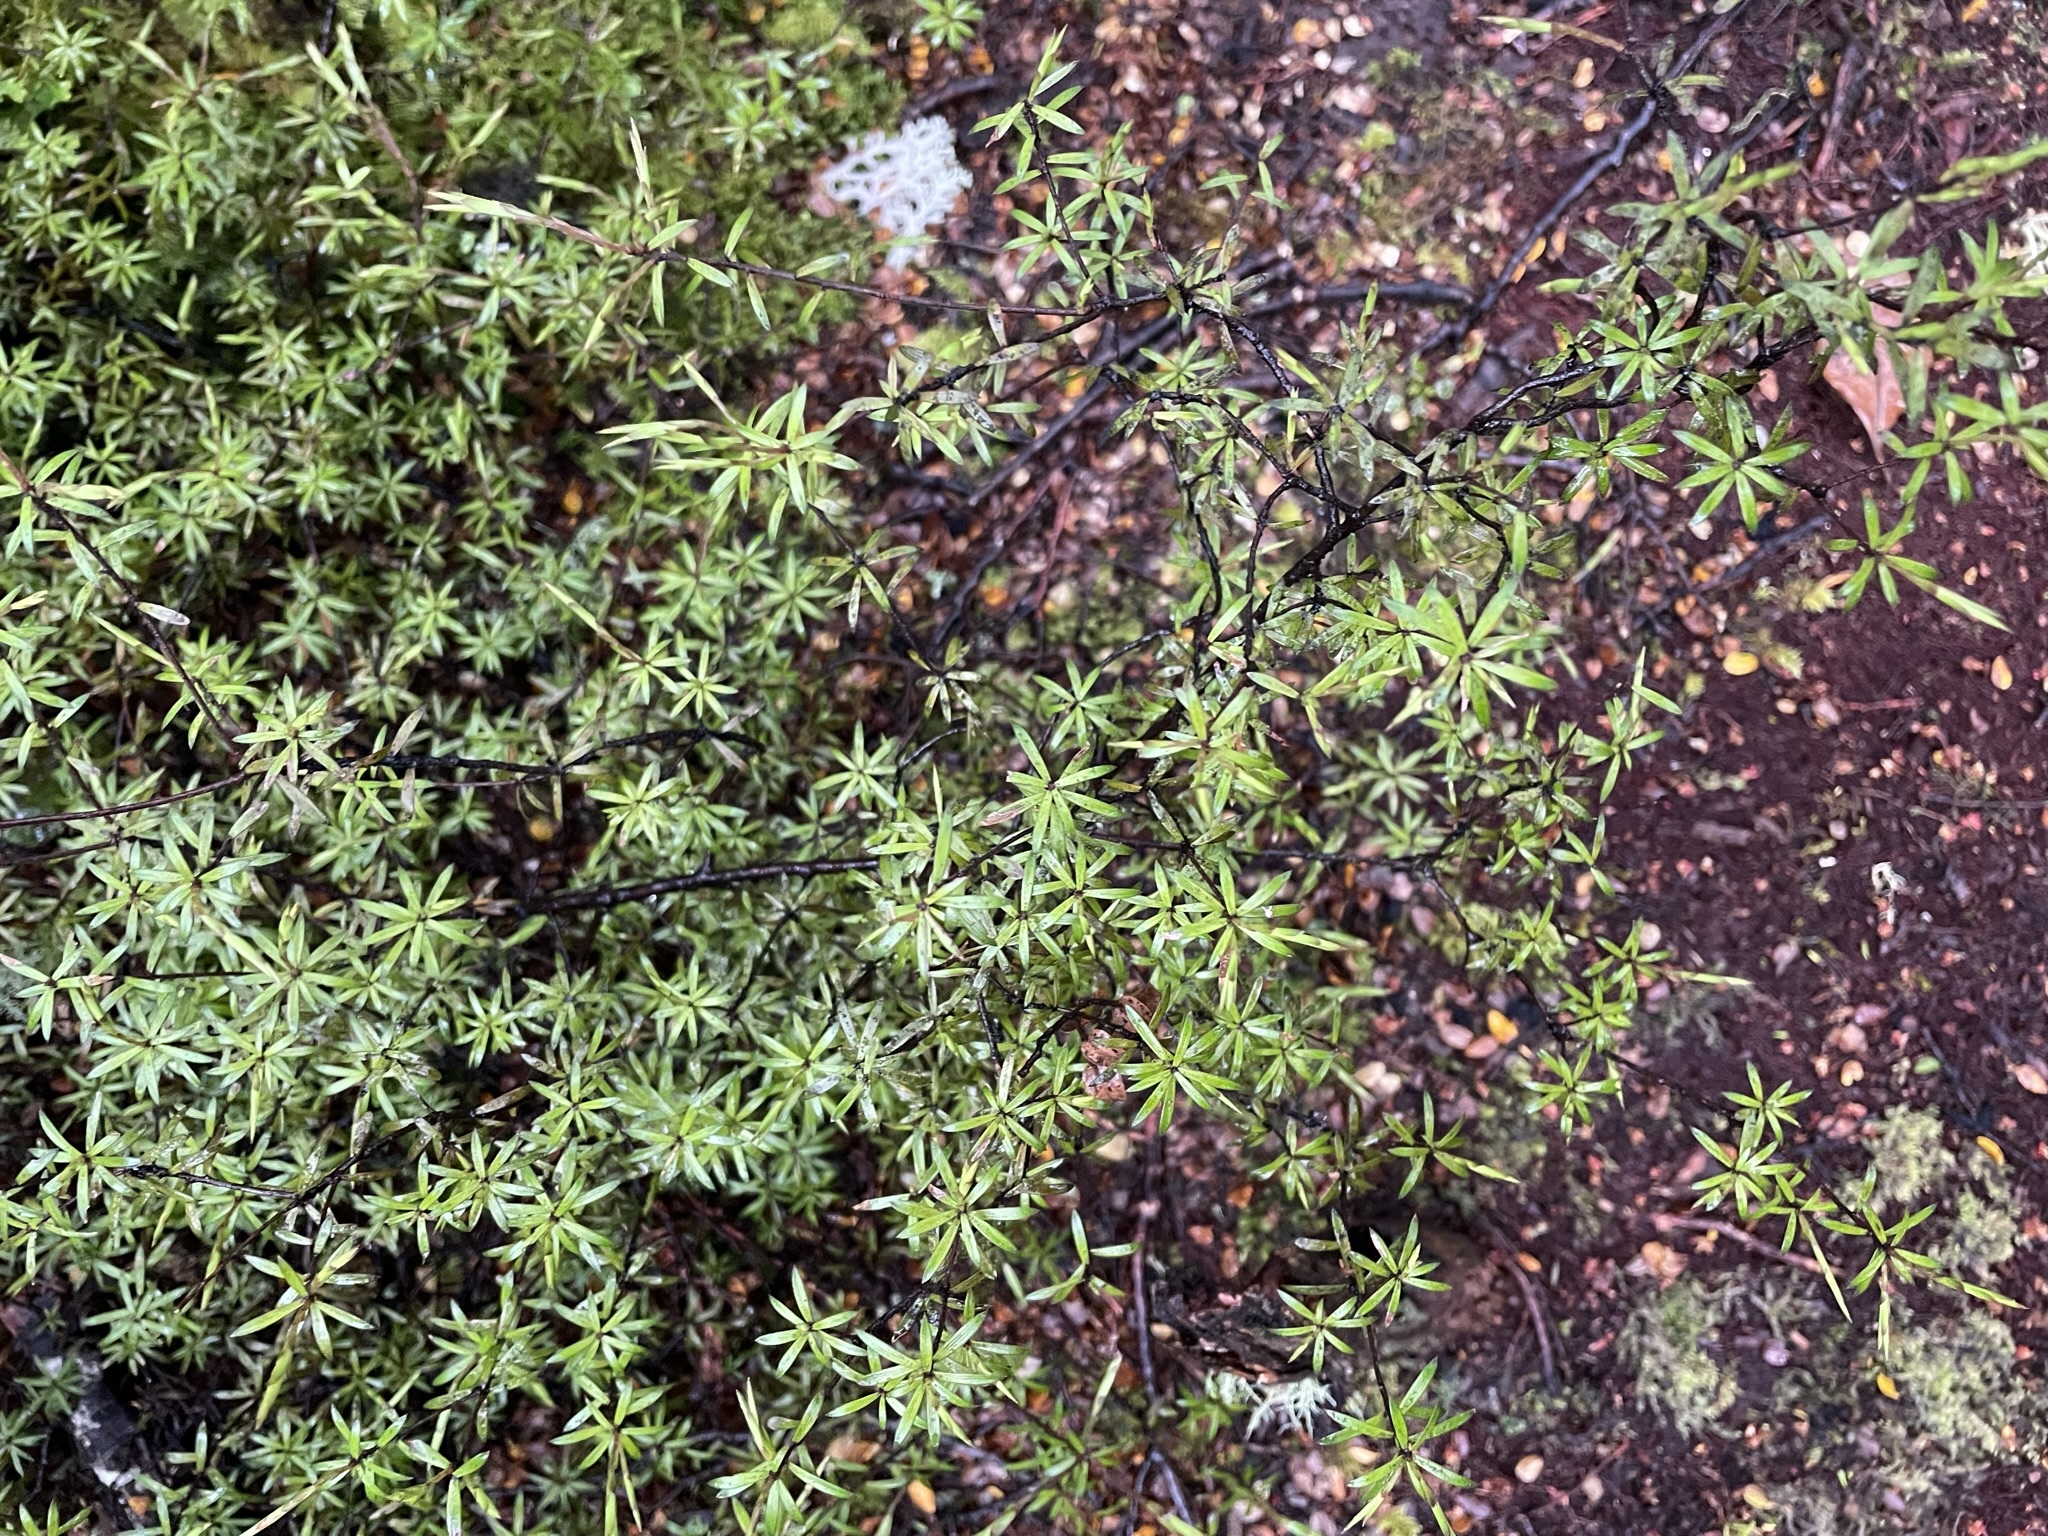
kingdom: Plantae
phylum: Tracheophyta
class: Magnoliopsida
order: Ericales
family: Ericaceae
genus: Leucopogon
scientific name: Leucopogon fasciculatus
